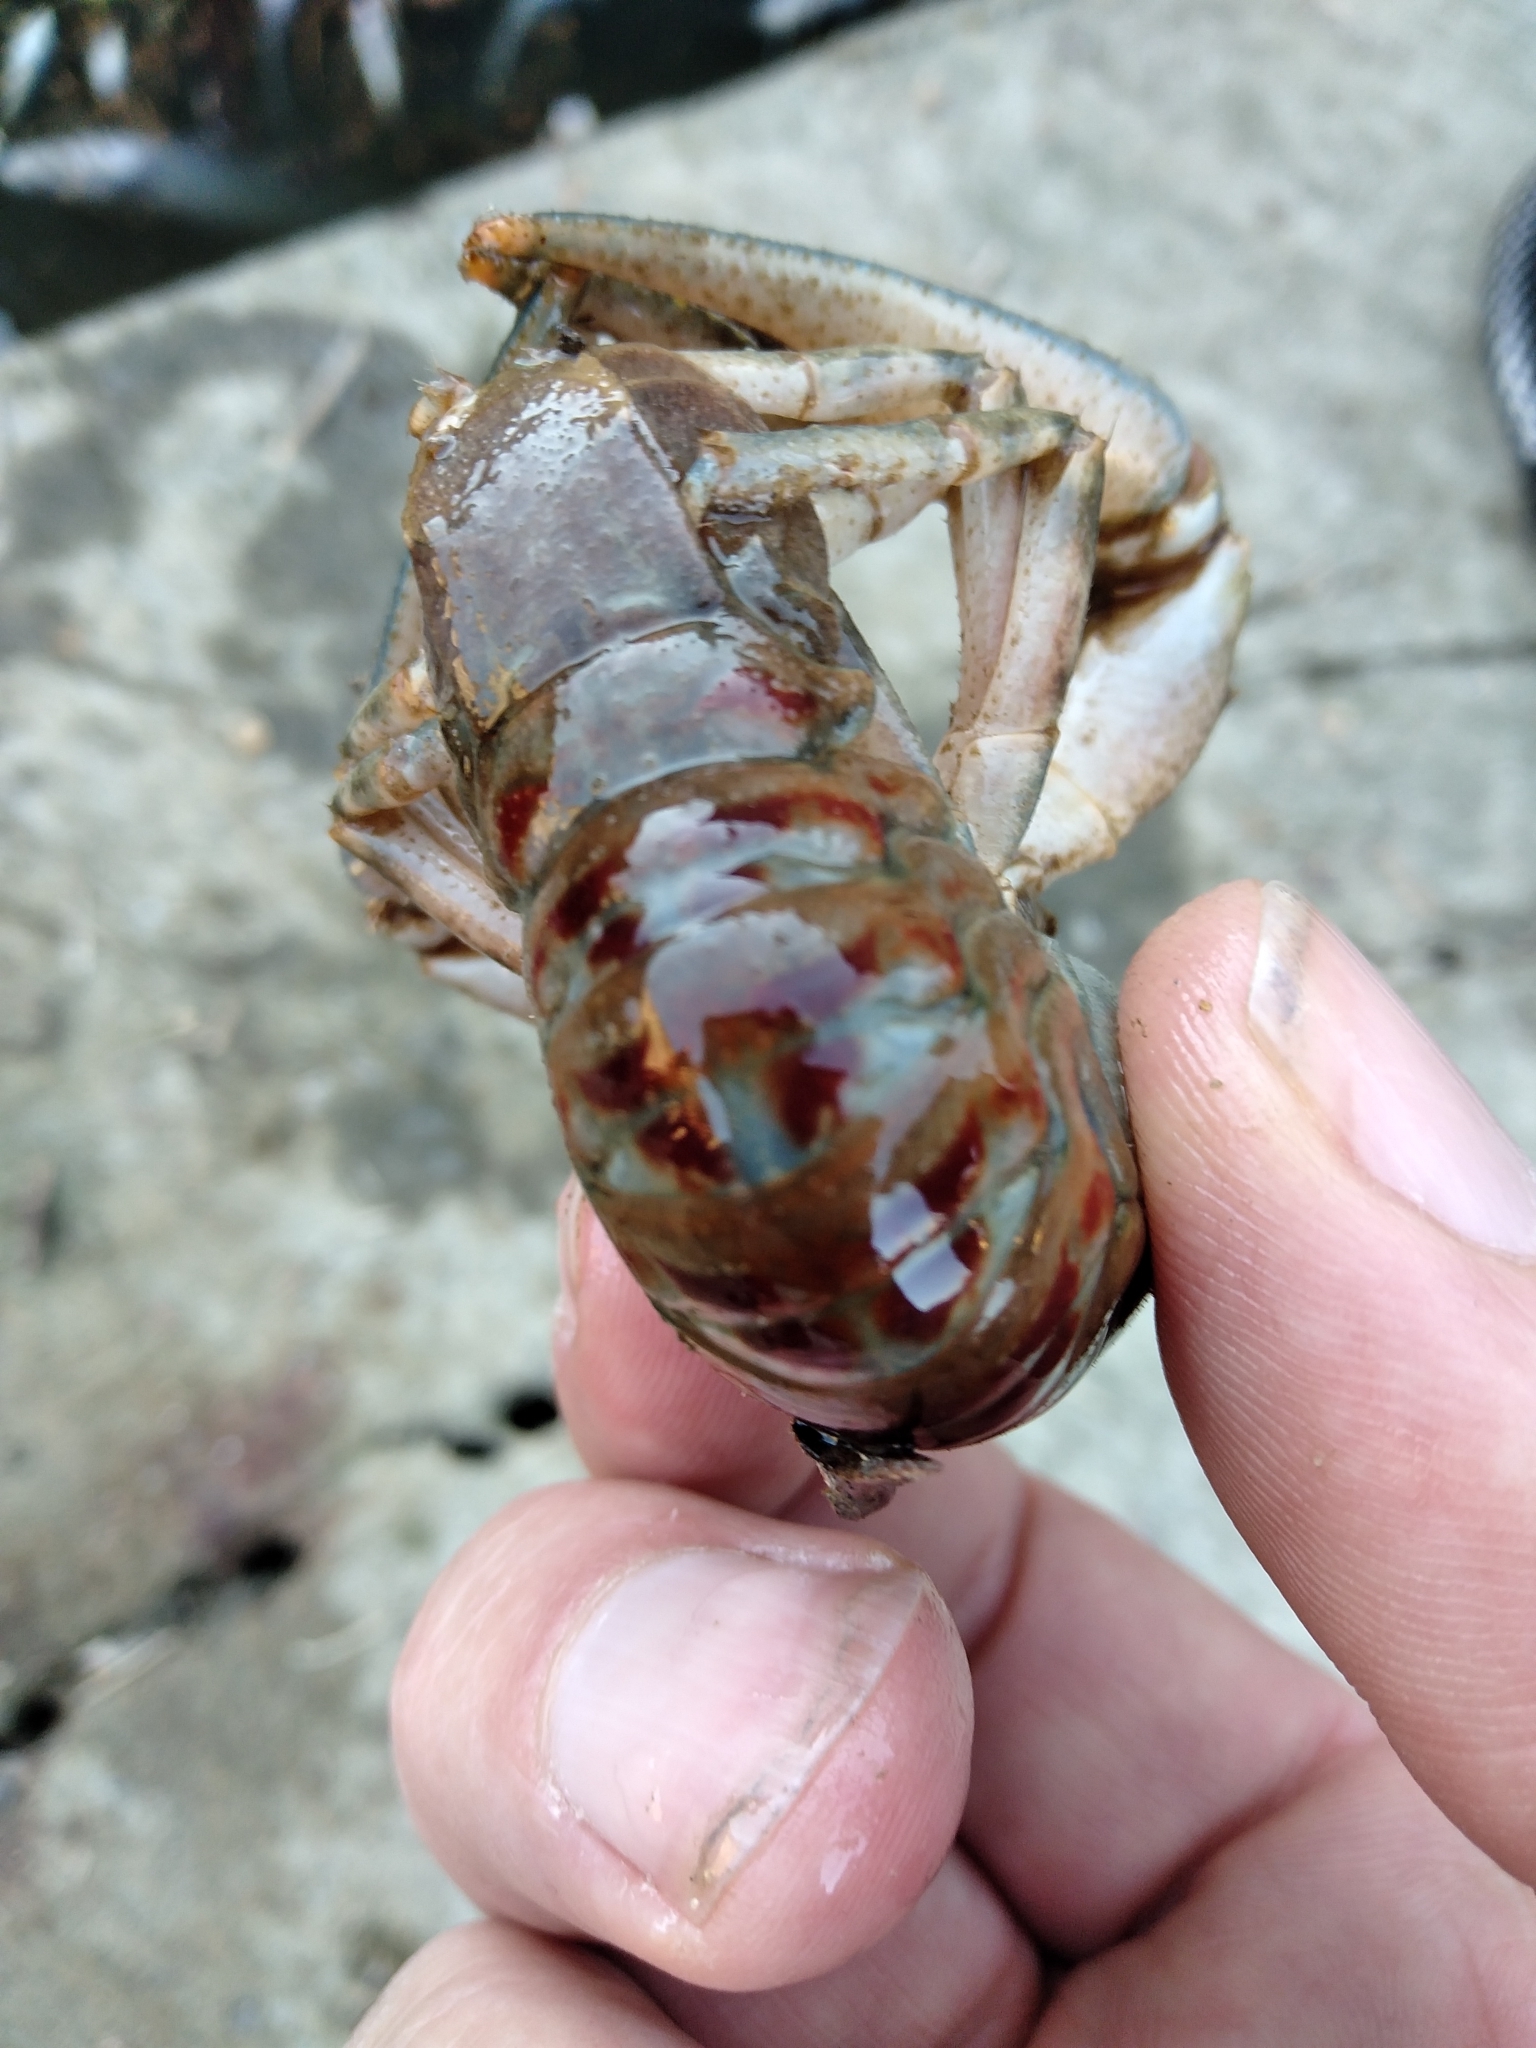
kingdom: Animalia
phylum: Arthropoda
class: Malacostraca
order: Decapoda
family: Cambaridae
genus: Faxonius
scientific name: Faxonius limosus
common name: American crayfish
